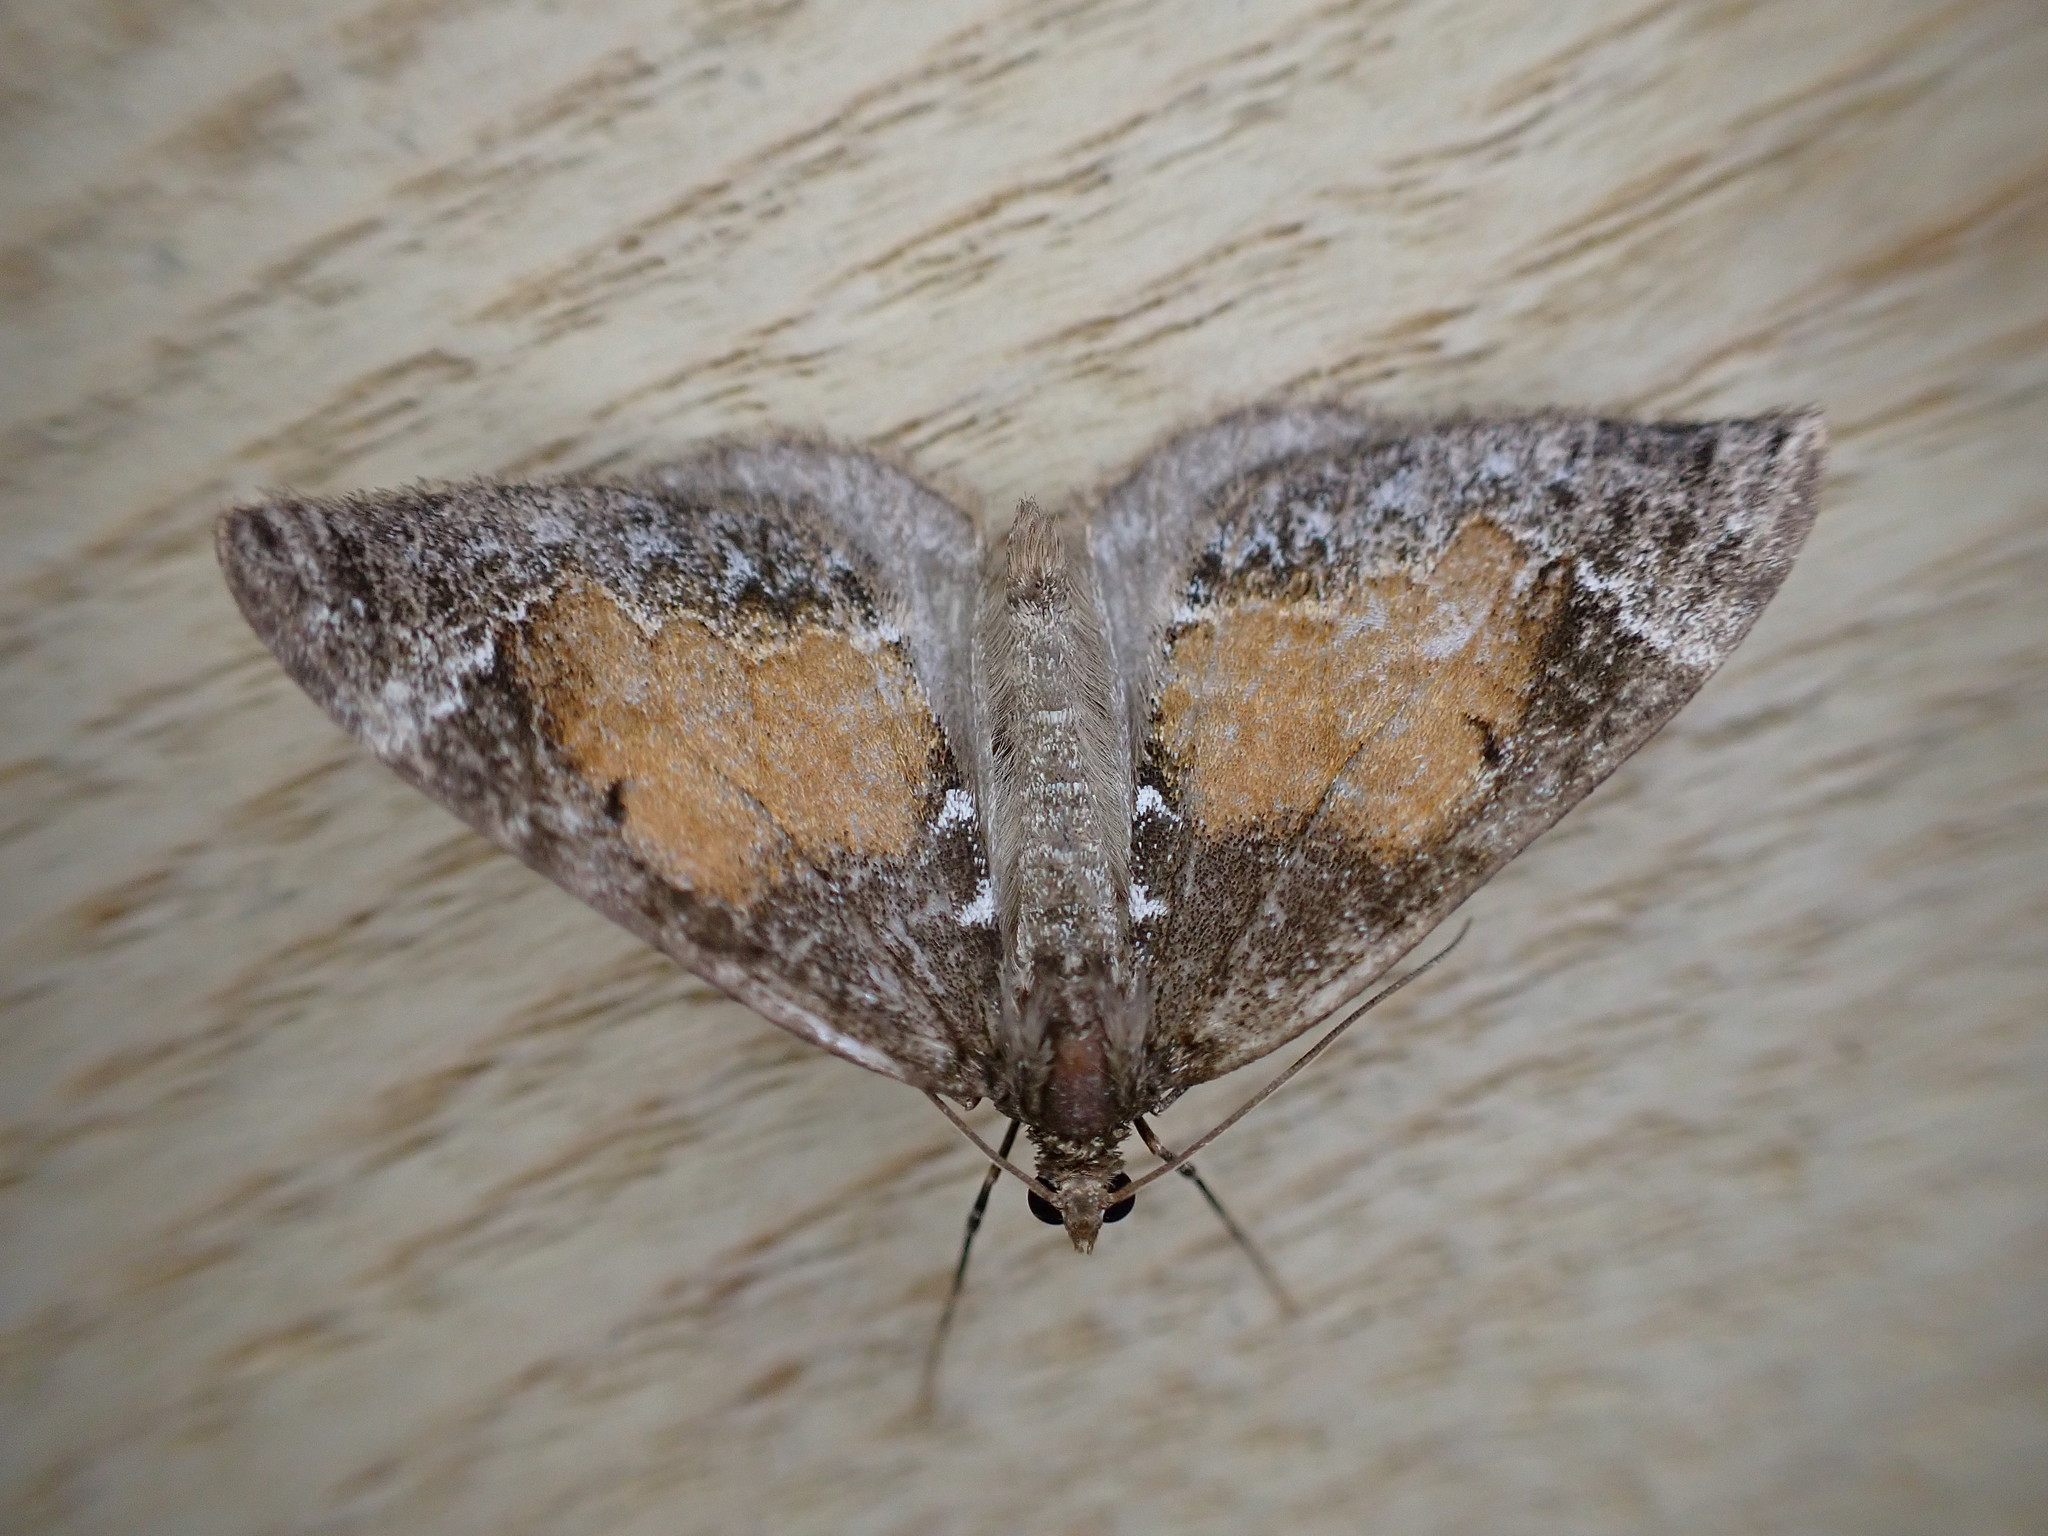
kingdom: Animalia
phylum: Arthropoda
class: Insecta
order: Lepidoptera
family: Geometridae
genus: Dysstroma
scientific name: Dysstroma truncata
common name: Common marbled carpet
